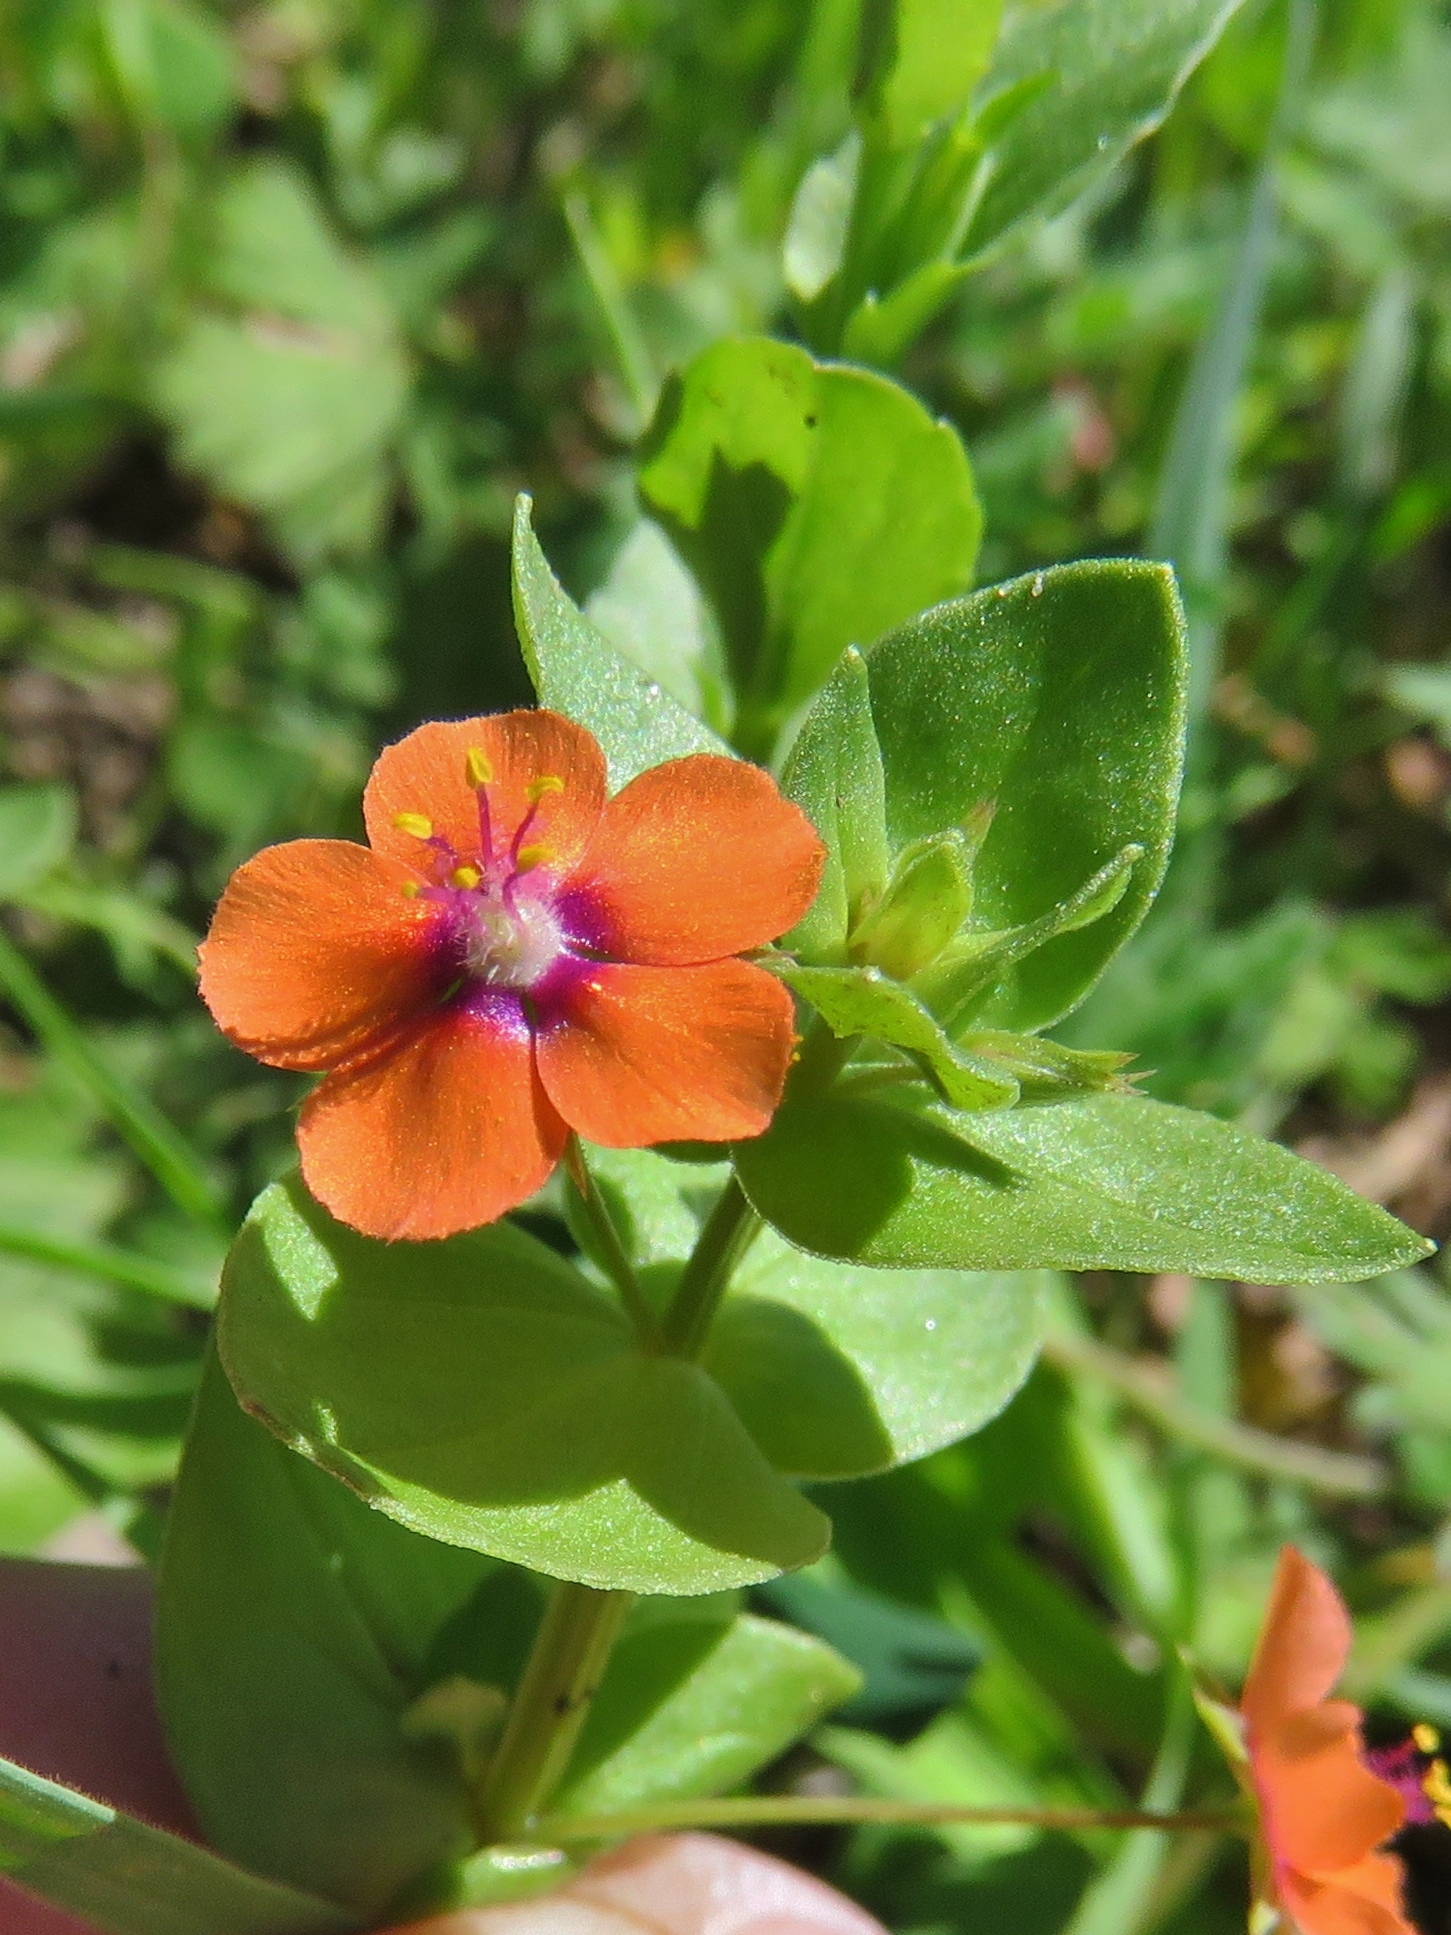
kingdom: Plantae
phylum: Tracheophyta
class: Magnoliopsida
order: Ericales
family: Primulaceae
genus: Lysimachia
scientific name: Lysimachia arvensis
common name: Scarlet pimpernel
